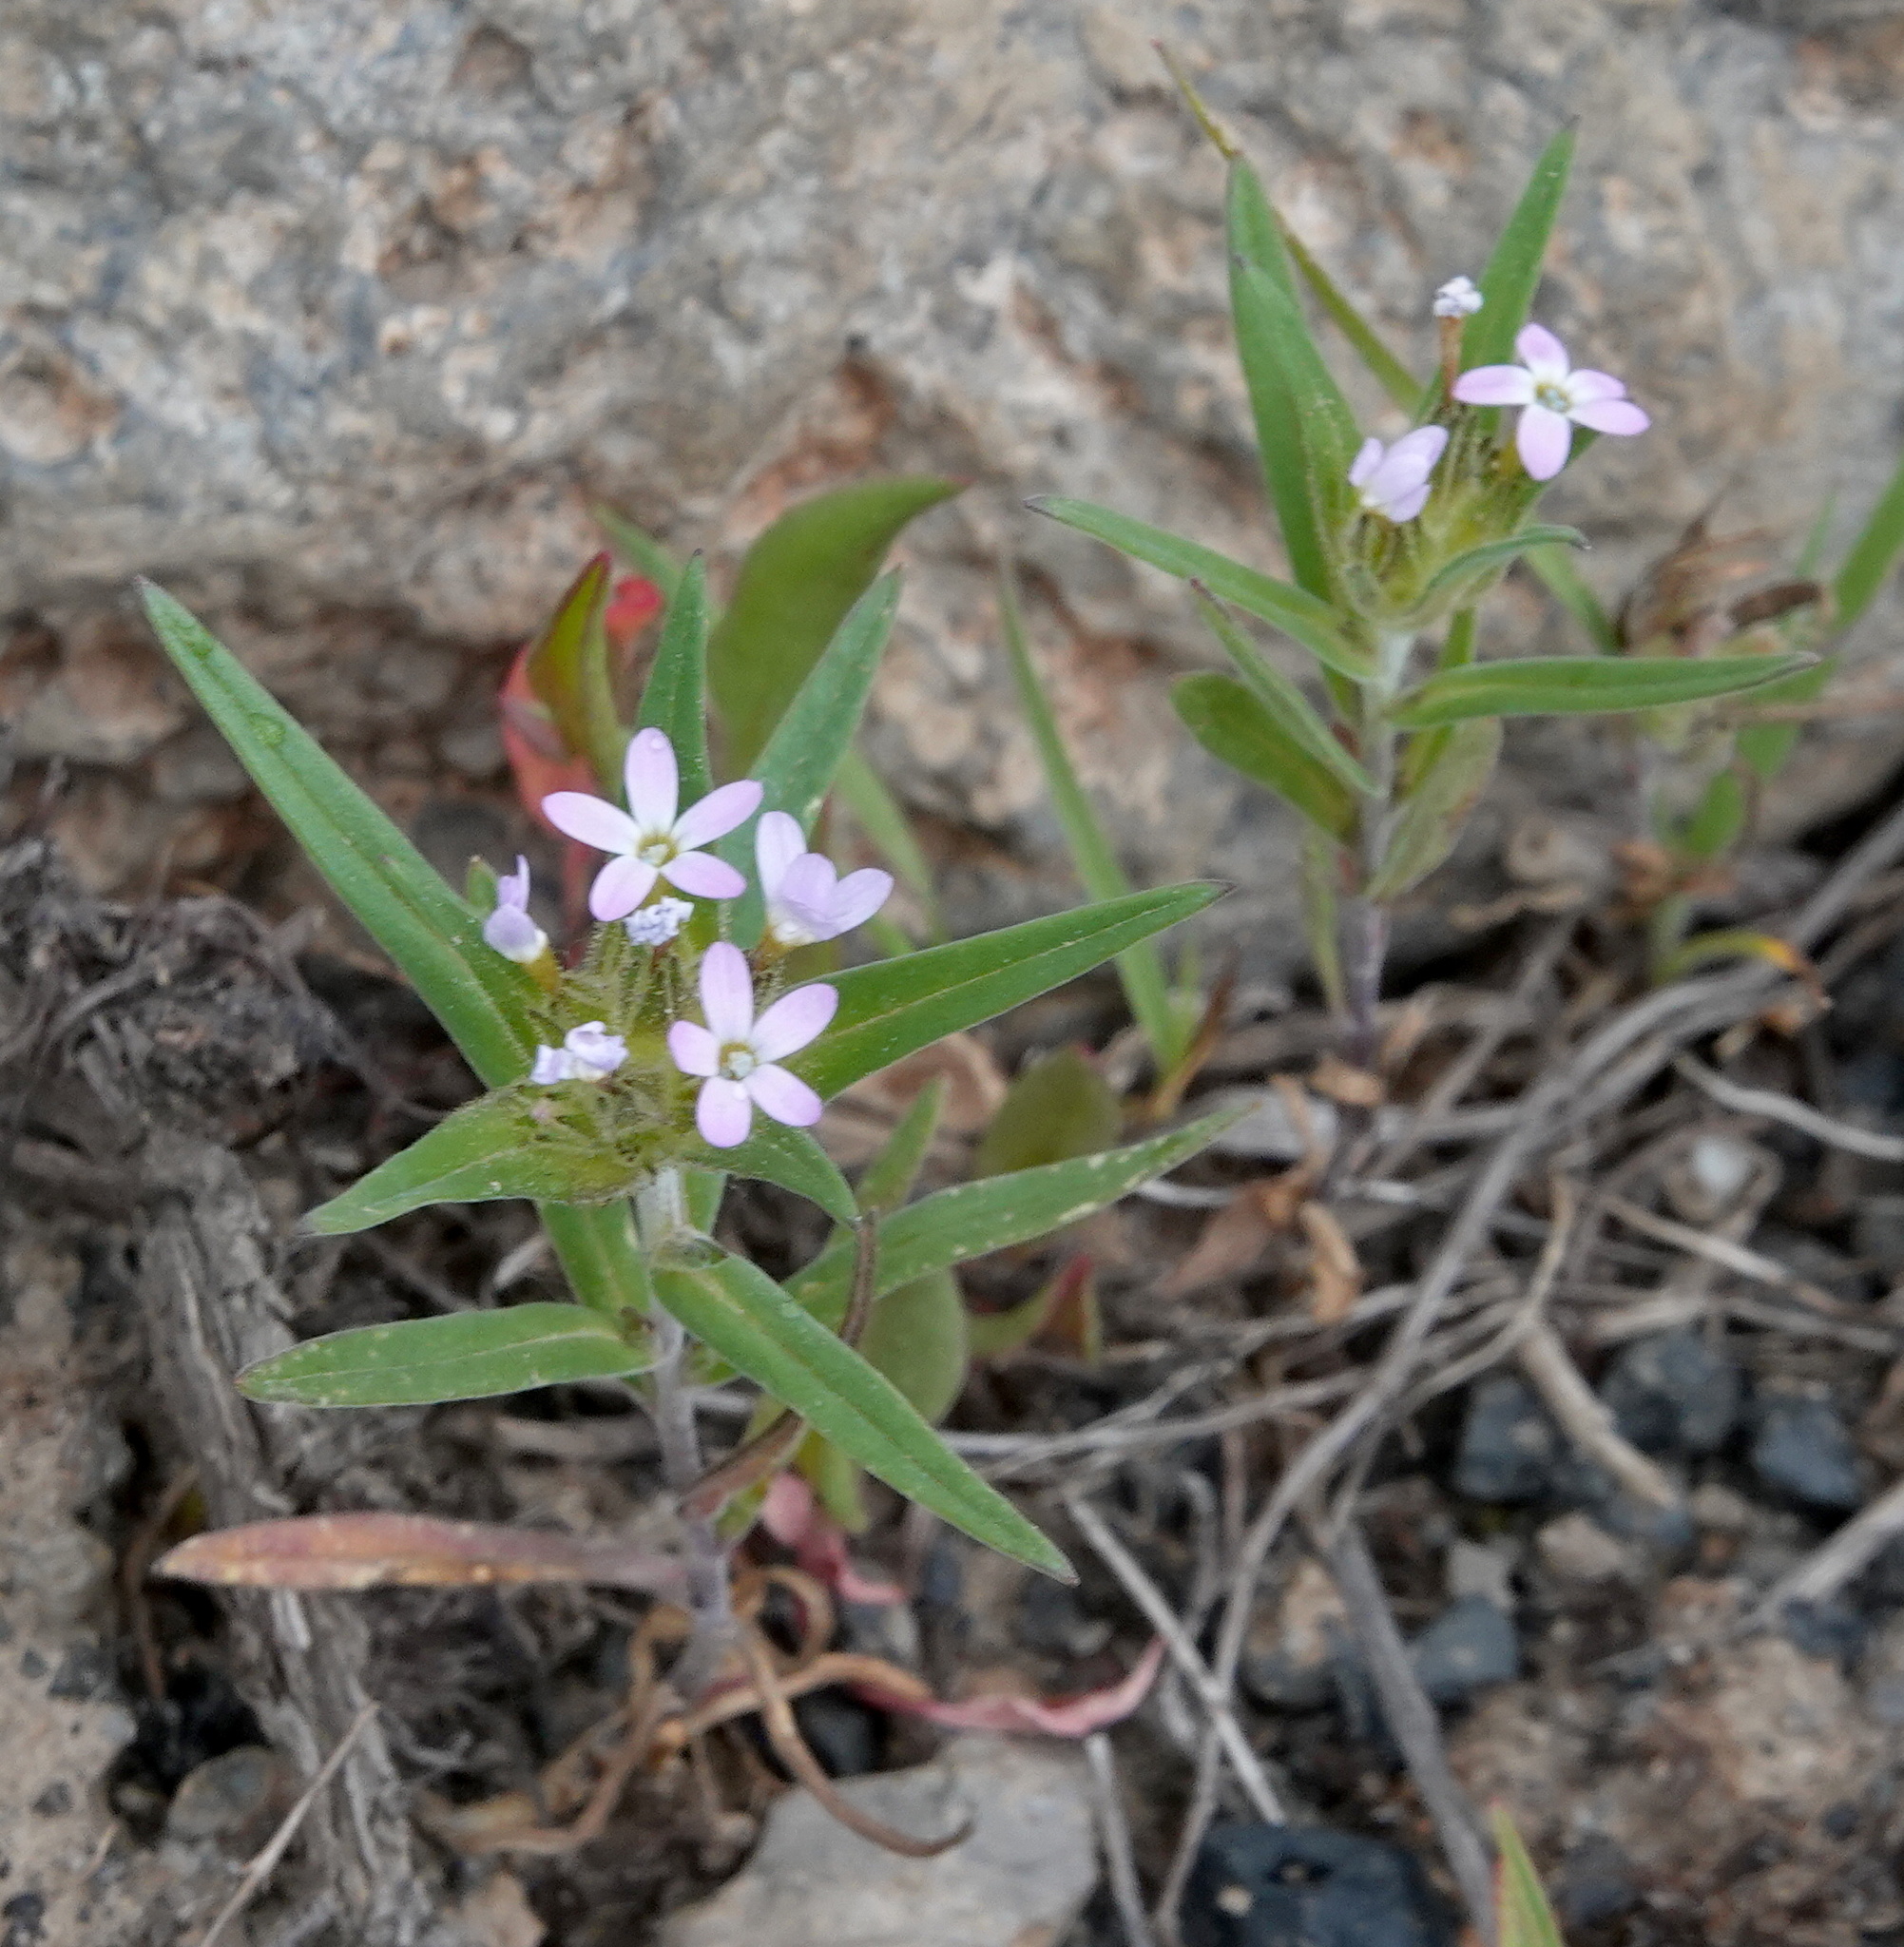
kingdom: Plantae
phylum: Tracheophyta
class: Magnoliopsida
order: Ericales
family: Polemoniaceae
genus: Collomia
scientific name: Collomia linearis
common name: Tiny trumpet
